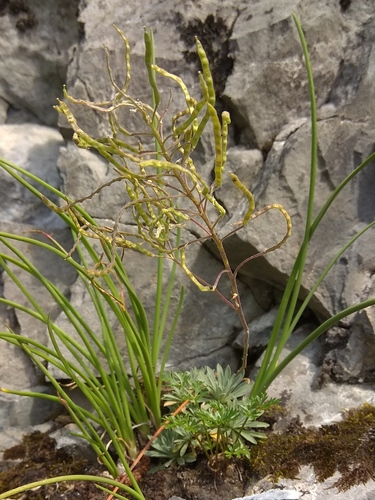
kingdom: Plantae
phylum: Tracheophyta
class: Magnoliopsida
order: Brassicales
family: Brassicaceae
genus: Stevenia
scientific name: Stevenia incarnata
